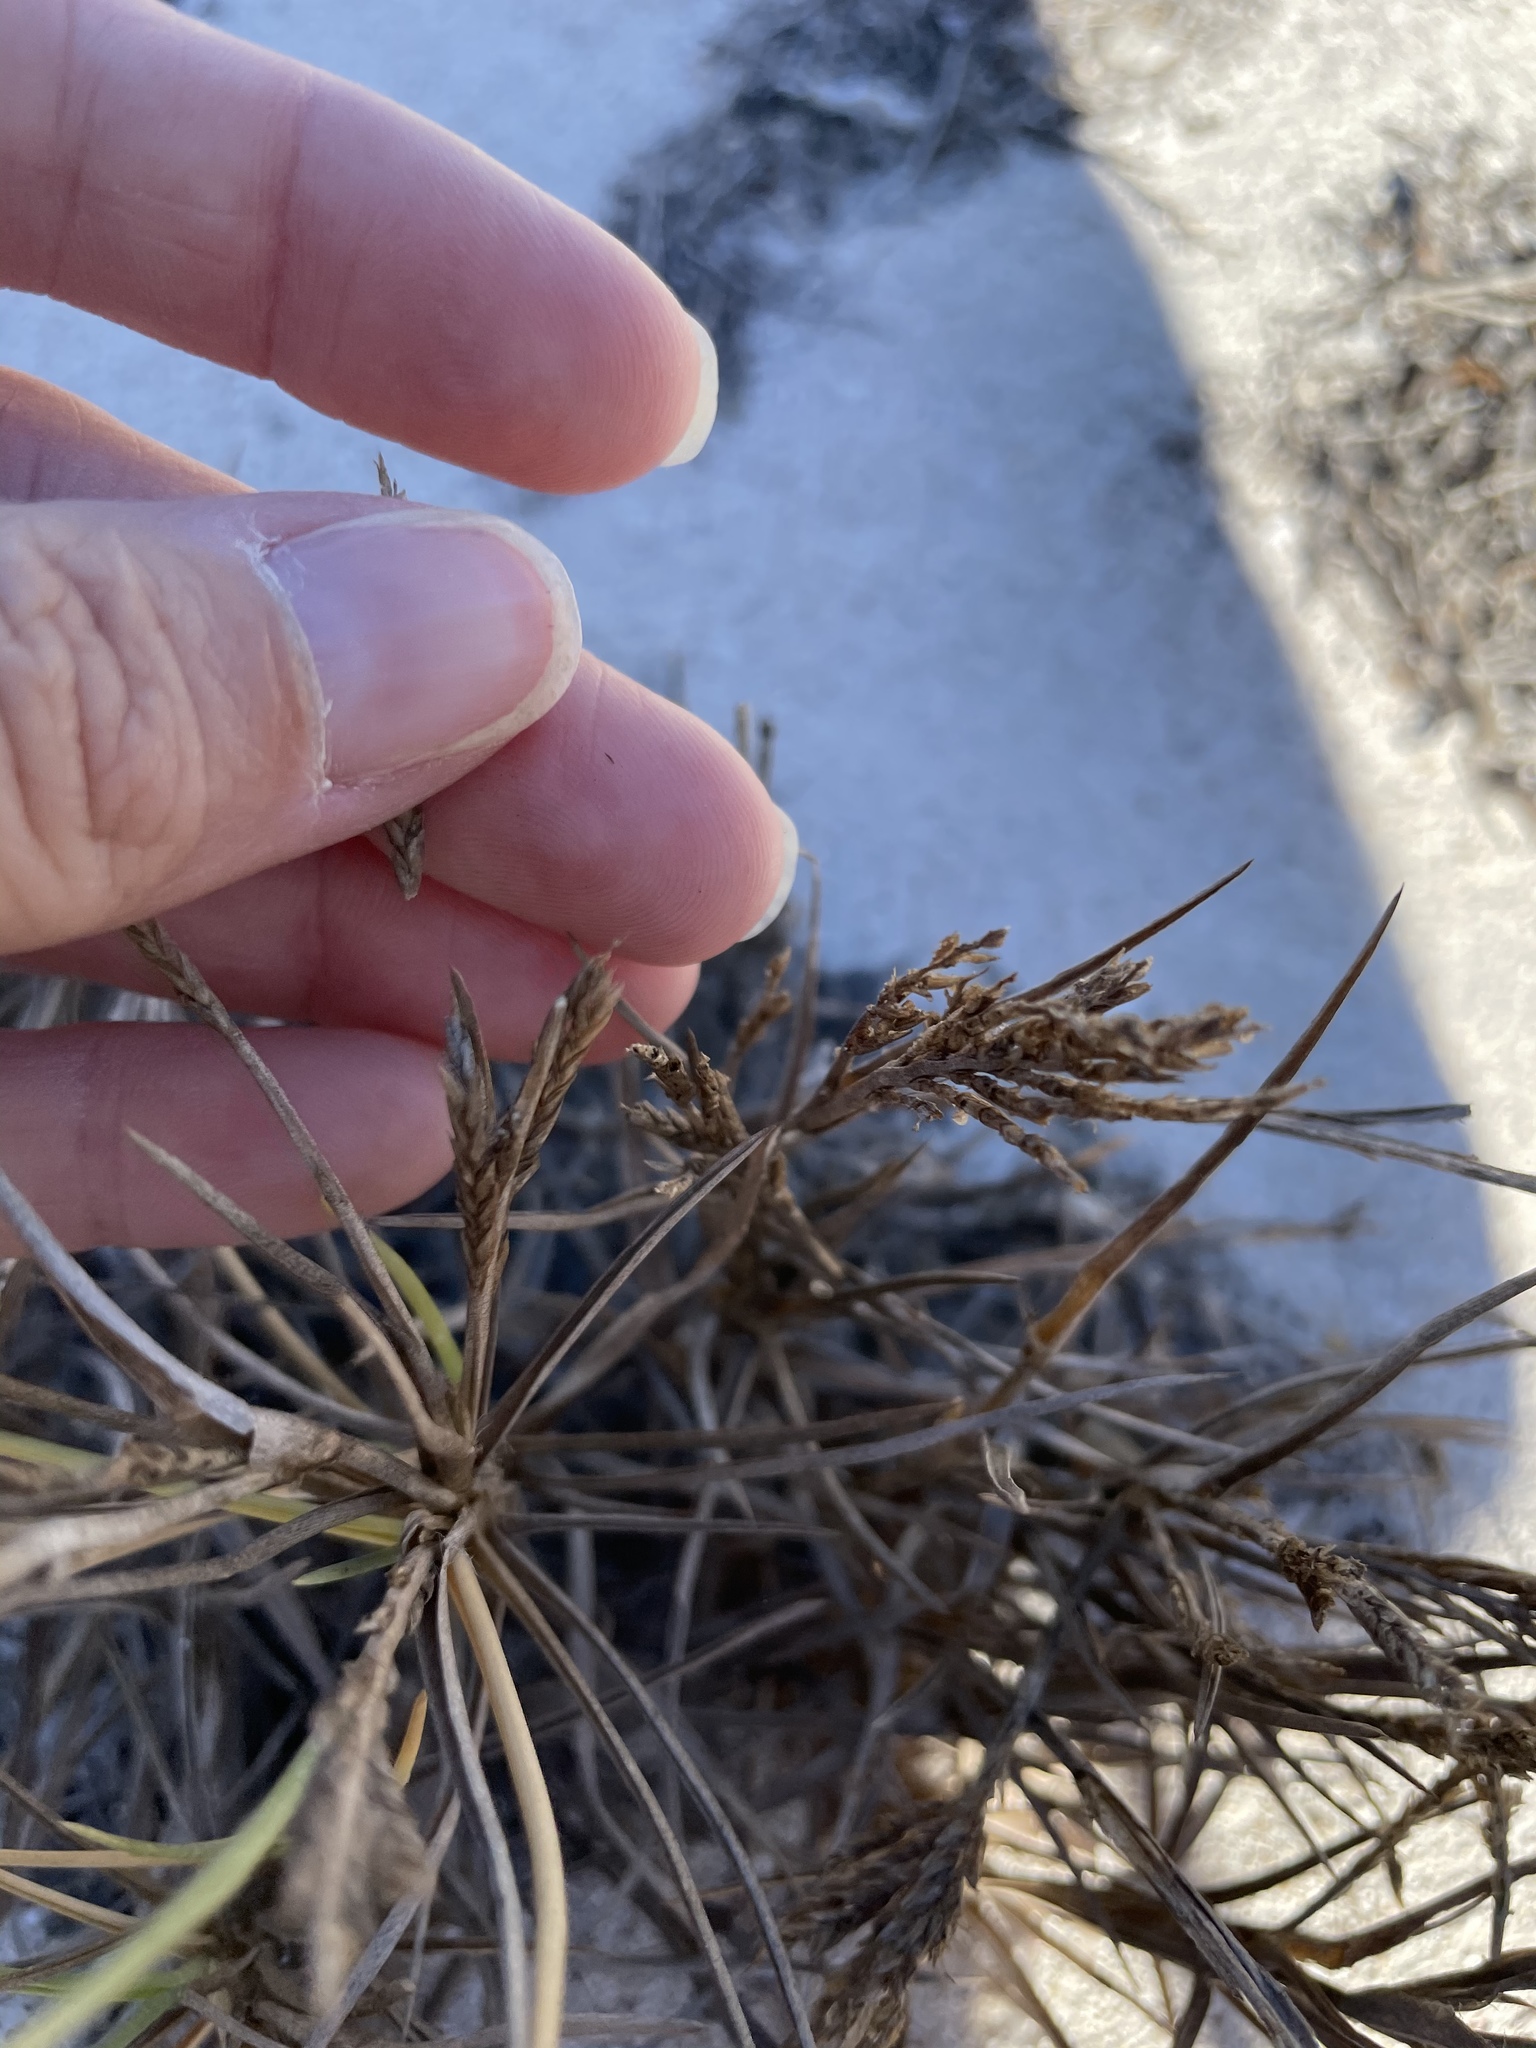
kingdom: Plantae
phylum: Tracheophyta
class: Liliopsida
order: Poales
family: Poaceae
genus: Jouvea
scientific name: Jouvea pilosa
